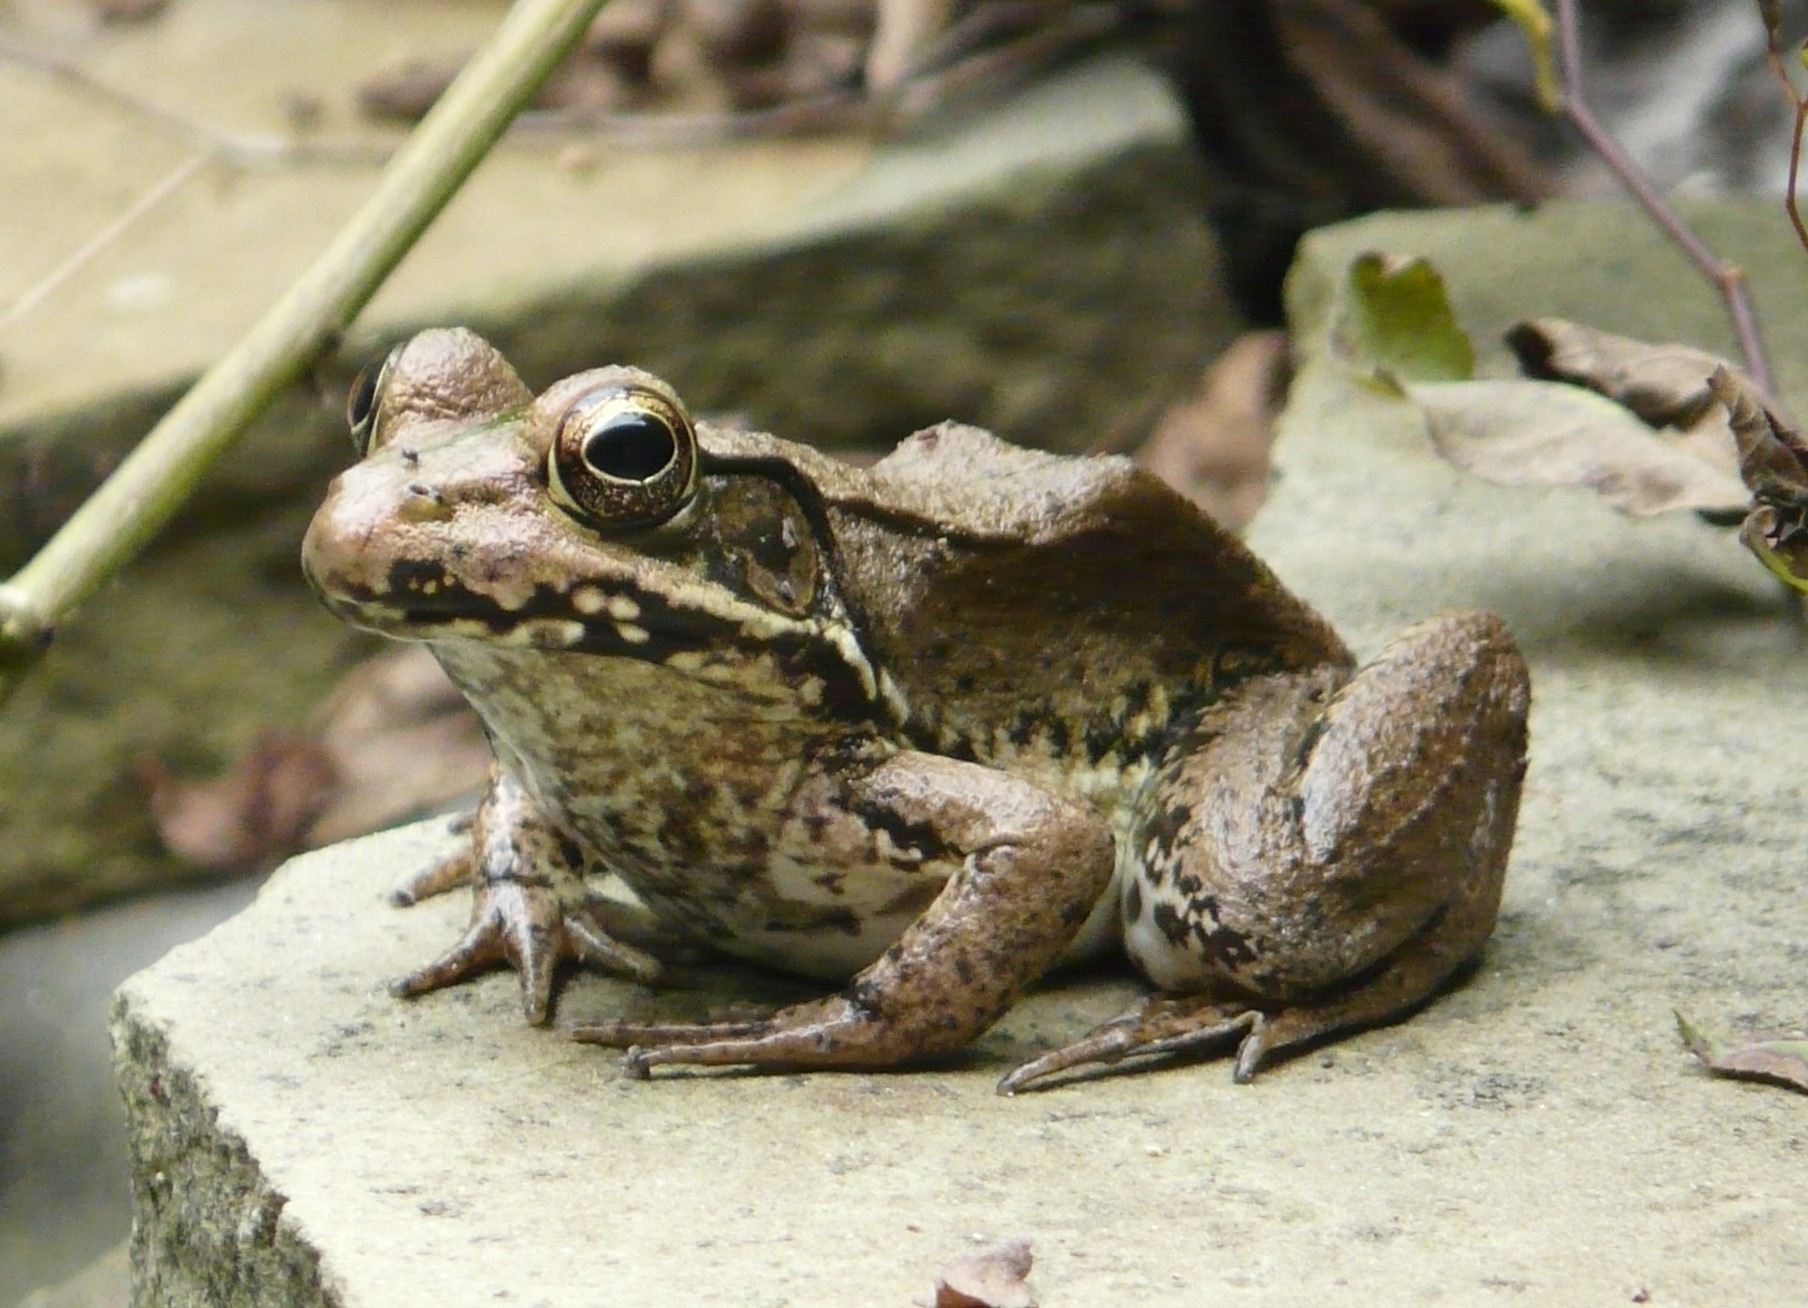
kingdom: Animalia
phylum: Chordata
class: Amphibia
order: Anura
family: Ranidae
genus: Lithobates
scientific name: Lithobates clamitans
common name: Green frog
